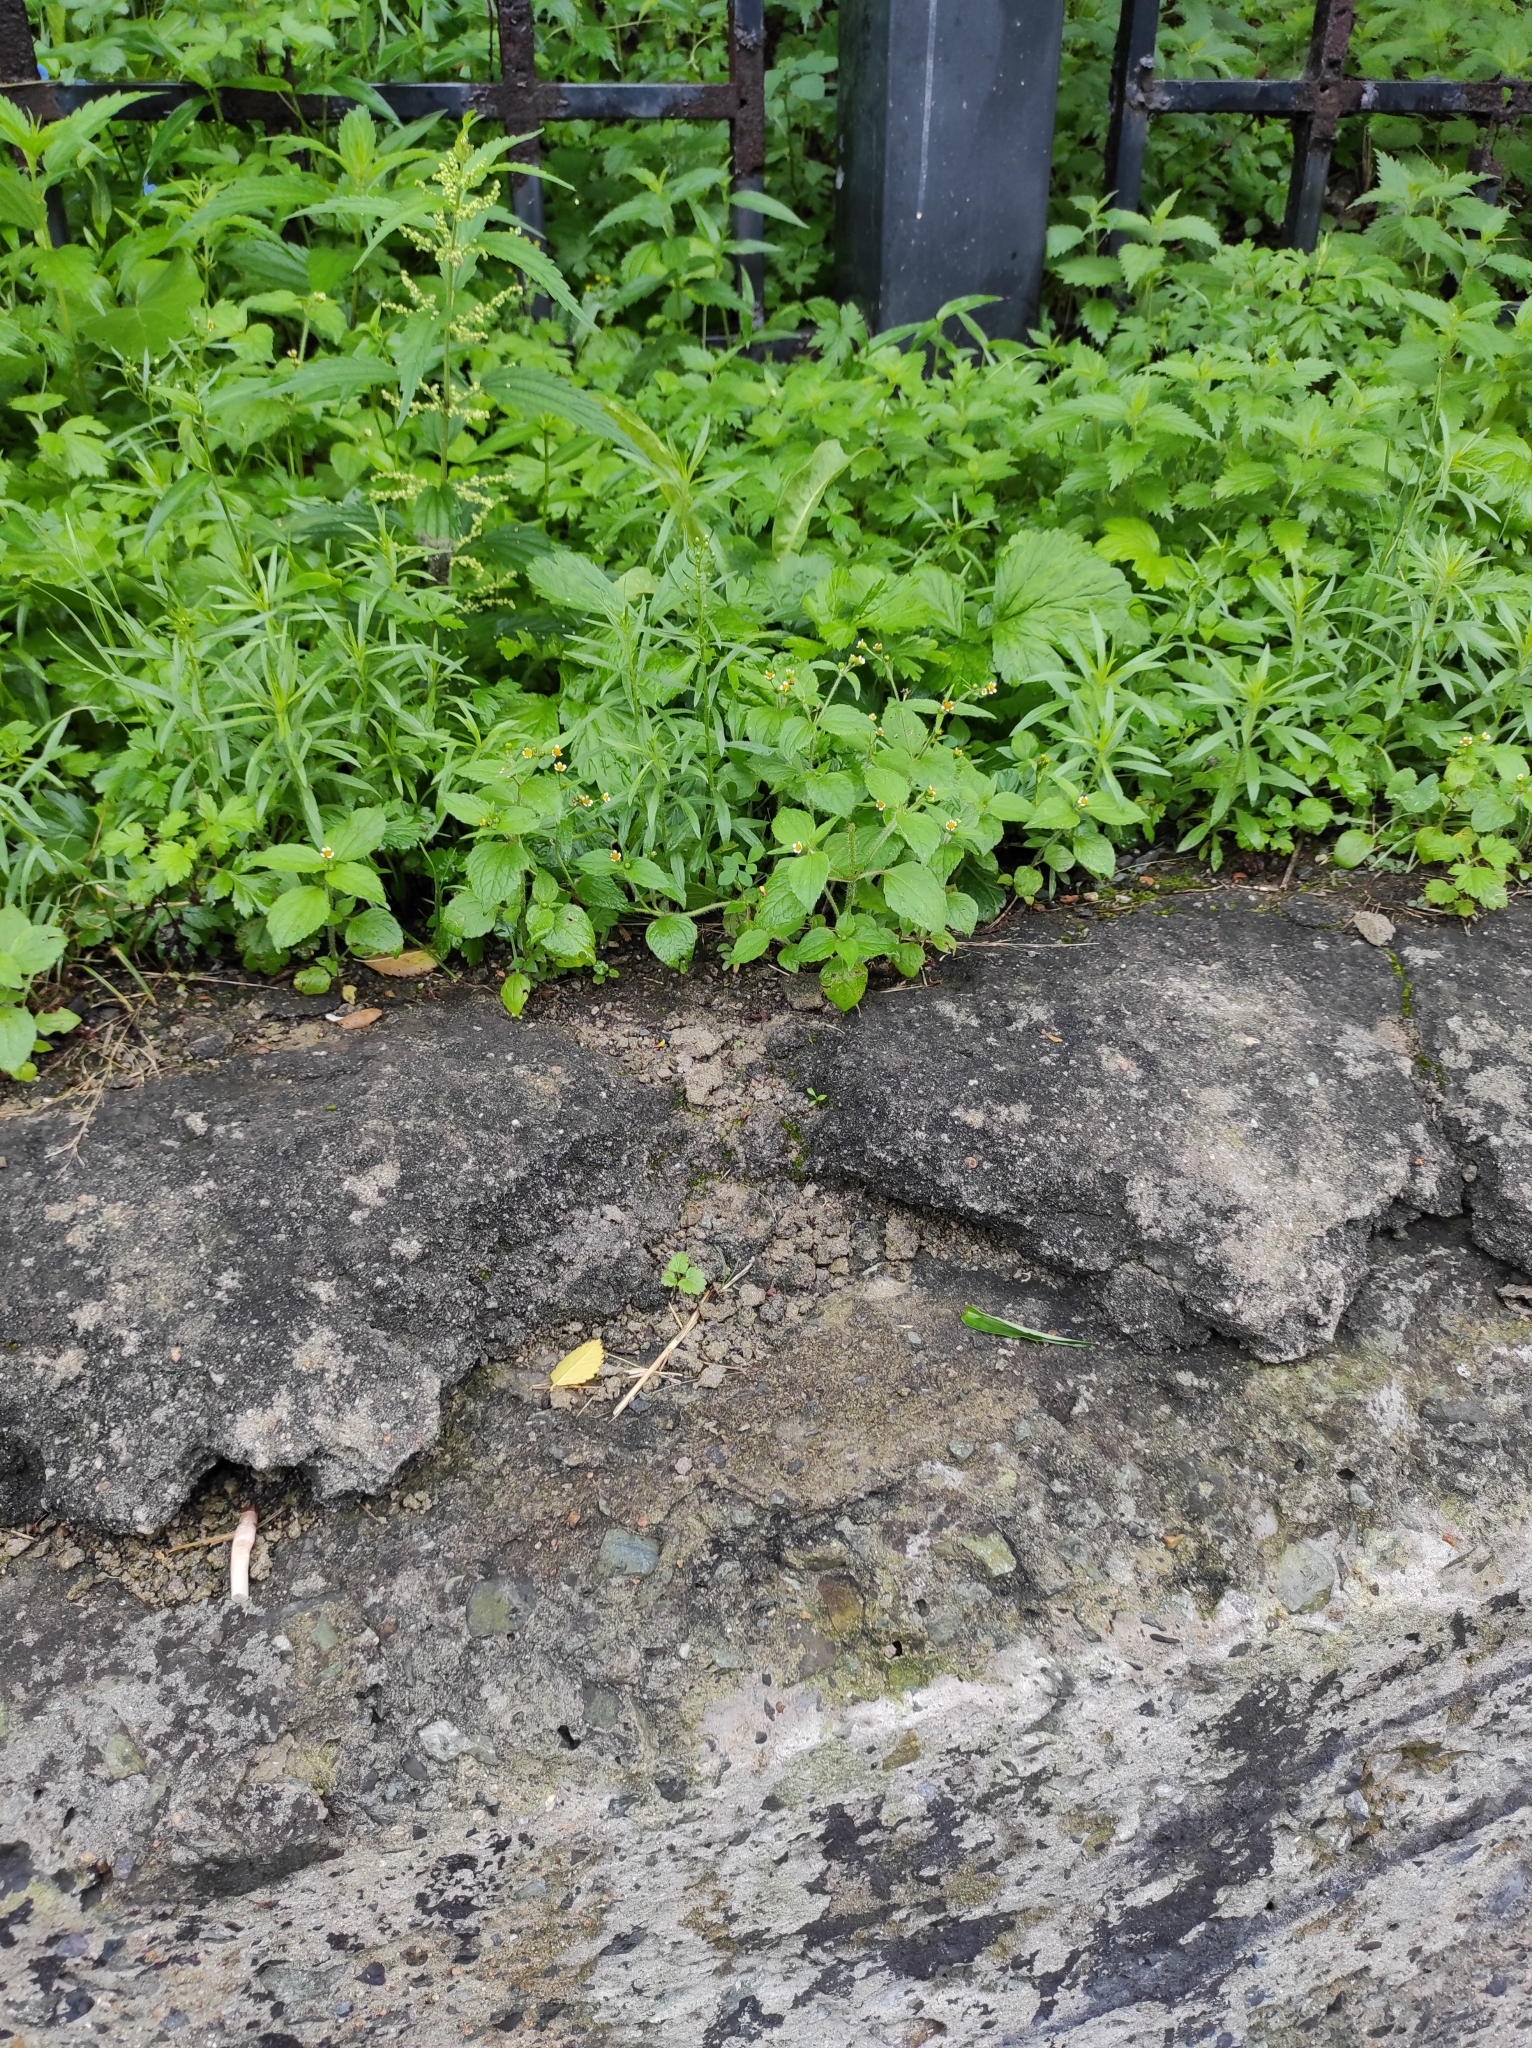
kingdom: Plantae
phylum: Tracheophyta
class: Magnoliopsida
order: Asterales
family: Asteraceae
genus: Galinsoga
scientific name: Galinsoga quadriradiata
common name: Shaggy soldier
